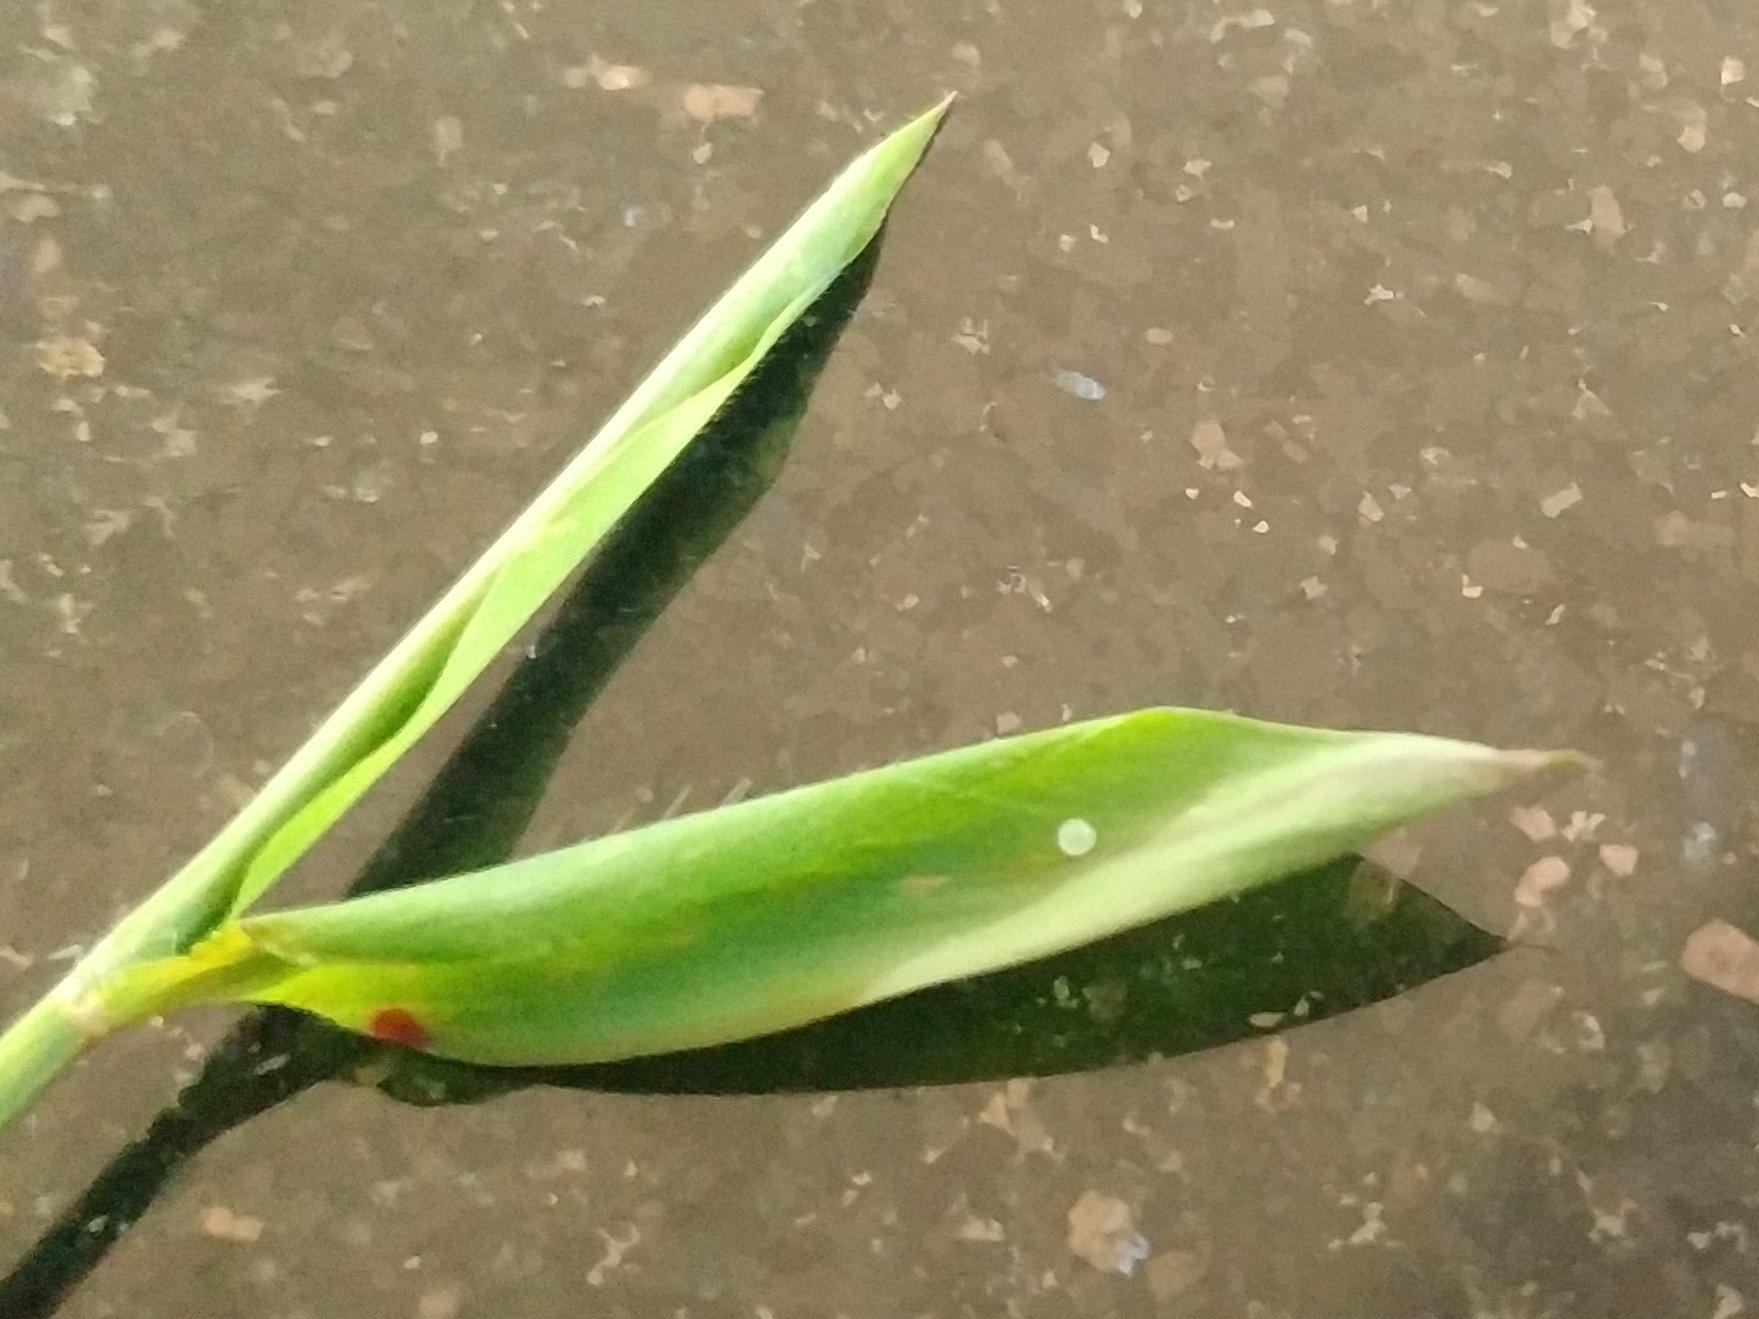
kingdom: Animalia
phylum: Arthropoda
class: Insecta
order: Lepidoptera
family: Nymphalidae
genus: Orsotriaena
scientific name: Orsotriaena medus
